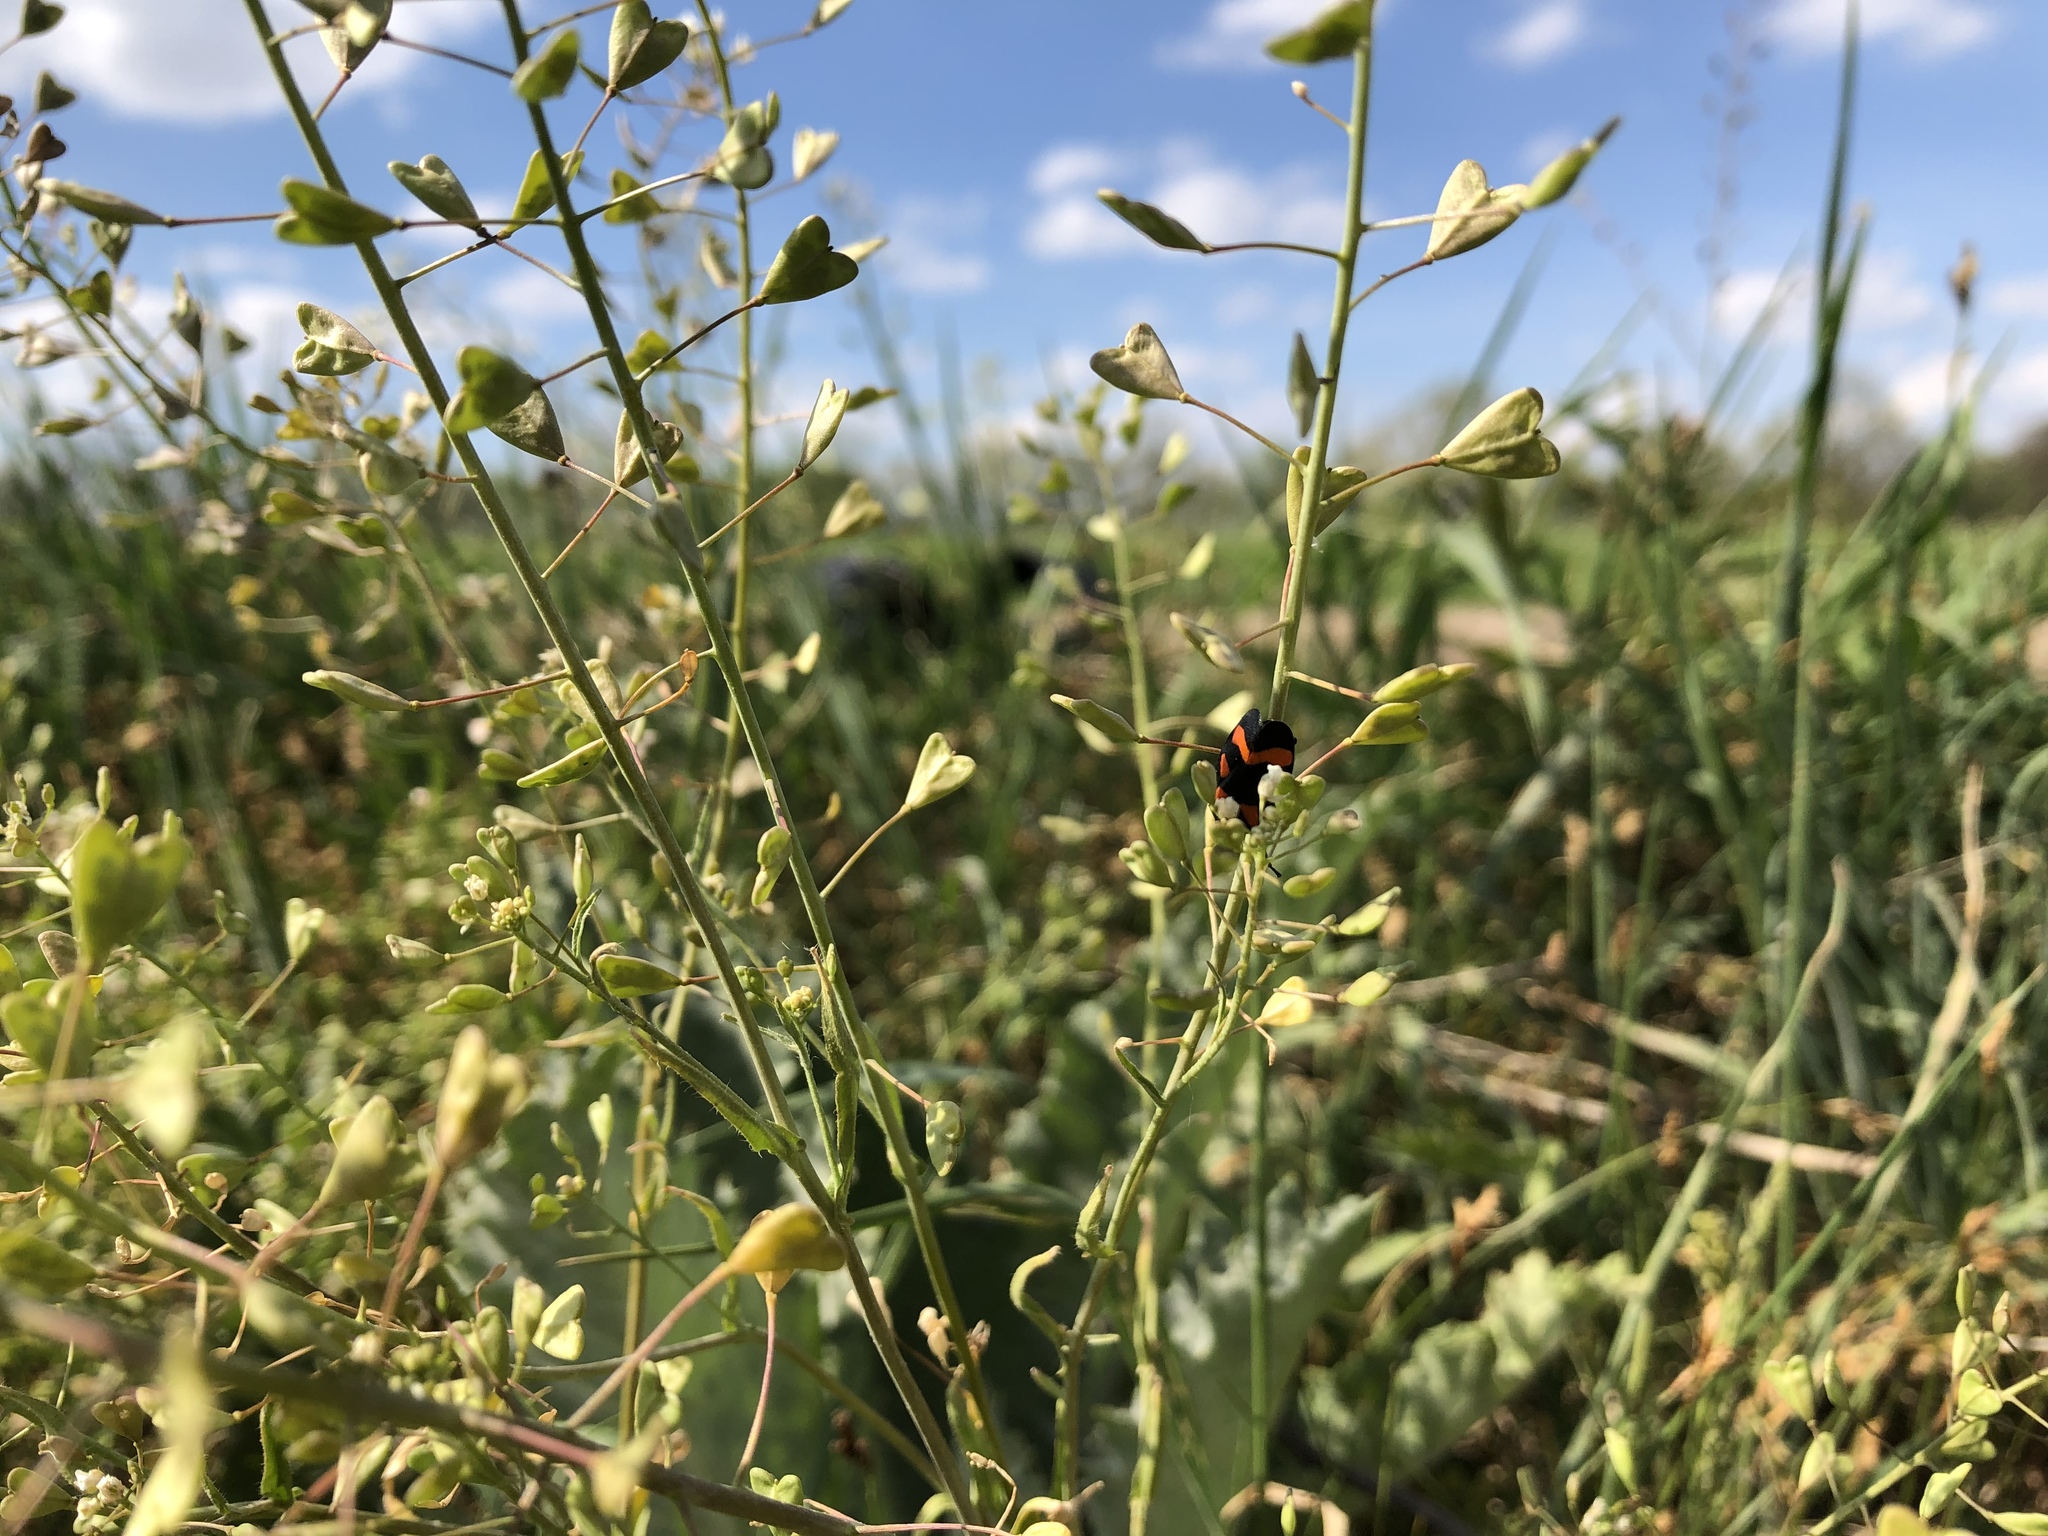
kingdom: Plantae
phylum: Tracheophyta
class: Magnoliopsida
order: Brassicales
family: Brassicaceae
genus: Capsella
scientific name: Capsella bursa-pastoris
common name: Shepherd's purse
